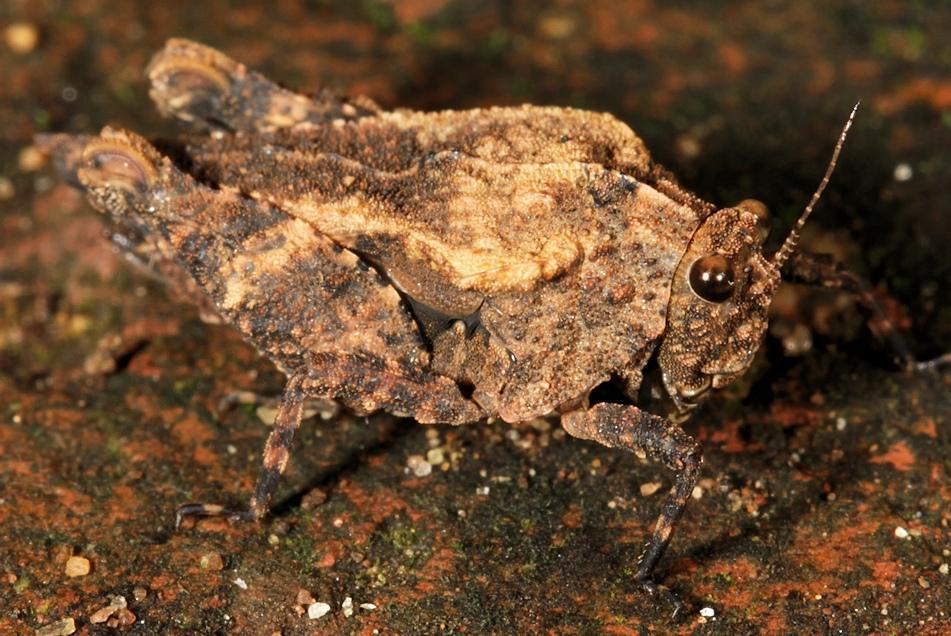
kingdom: Animalia
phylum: Arthropoda
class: Insecta
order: Orthoptera
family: Tetrigidae
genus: Dasyleurotettix
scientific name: Dasyleurotettix infaustus
